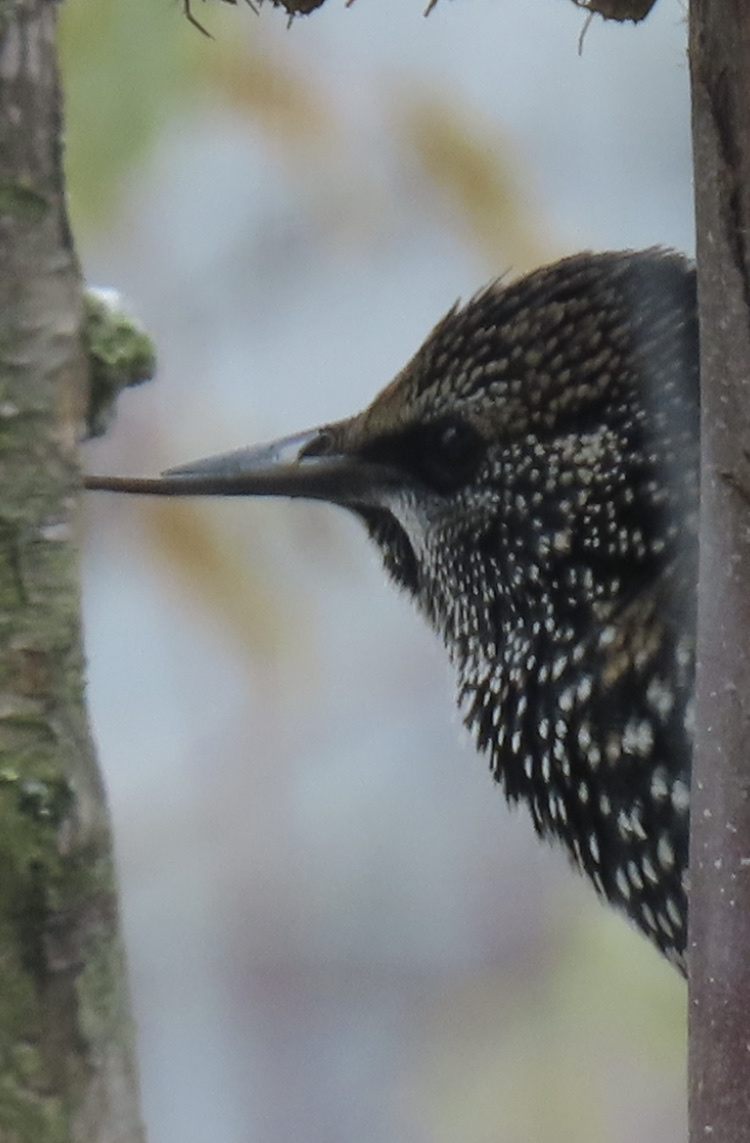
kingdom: Animalia
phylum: Chordata
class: Aves
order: Passeriformes
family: Sturnidae
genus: Sturnus
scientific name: Sturnus vulgaris
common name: Common starling
